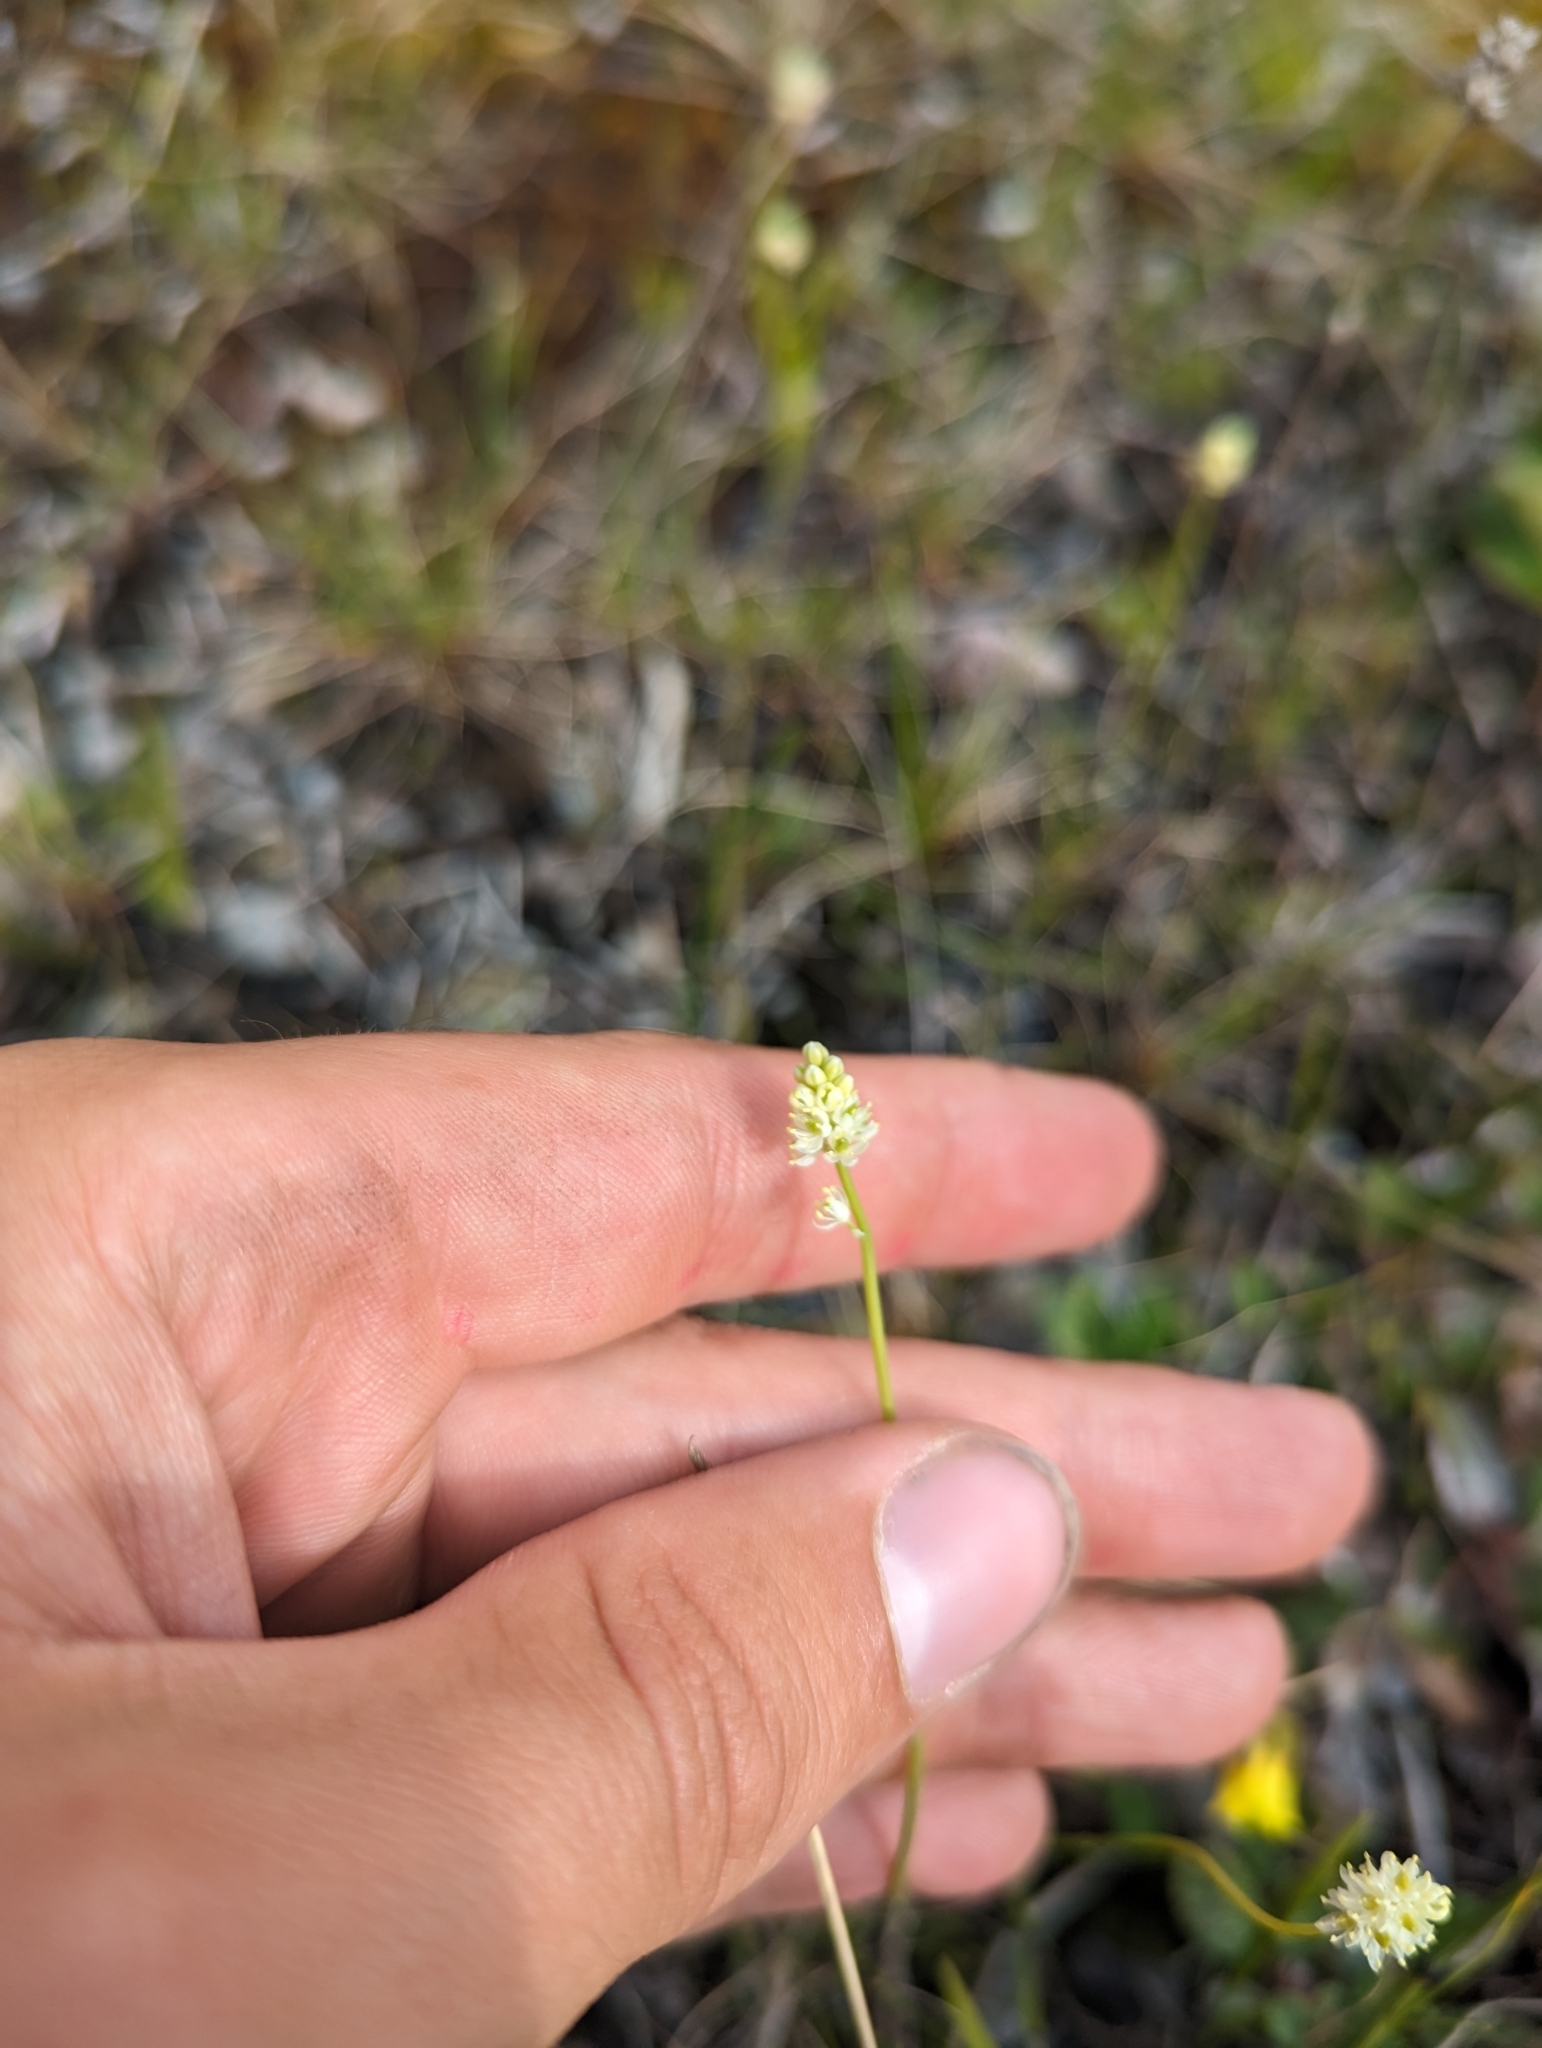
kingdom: Plantae
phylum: Tracheophyta
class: Liliopsida
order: Alismatales
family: Tofieldiaceae
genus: Tofieldia
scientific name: Tofieldia pusilla
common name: Scottish false asphodel
